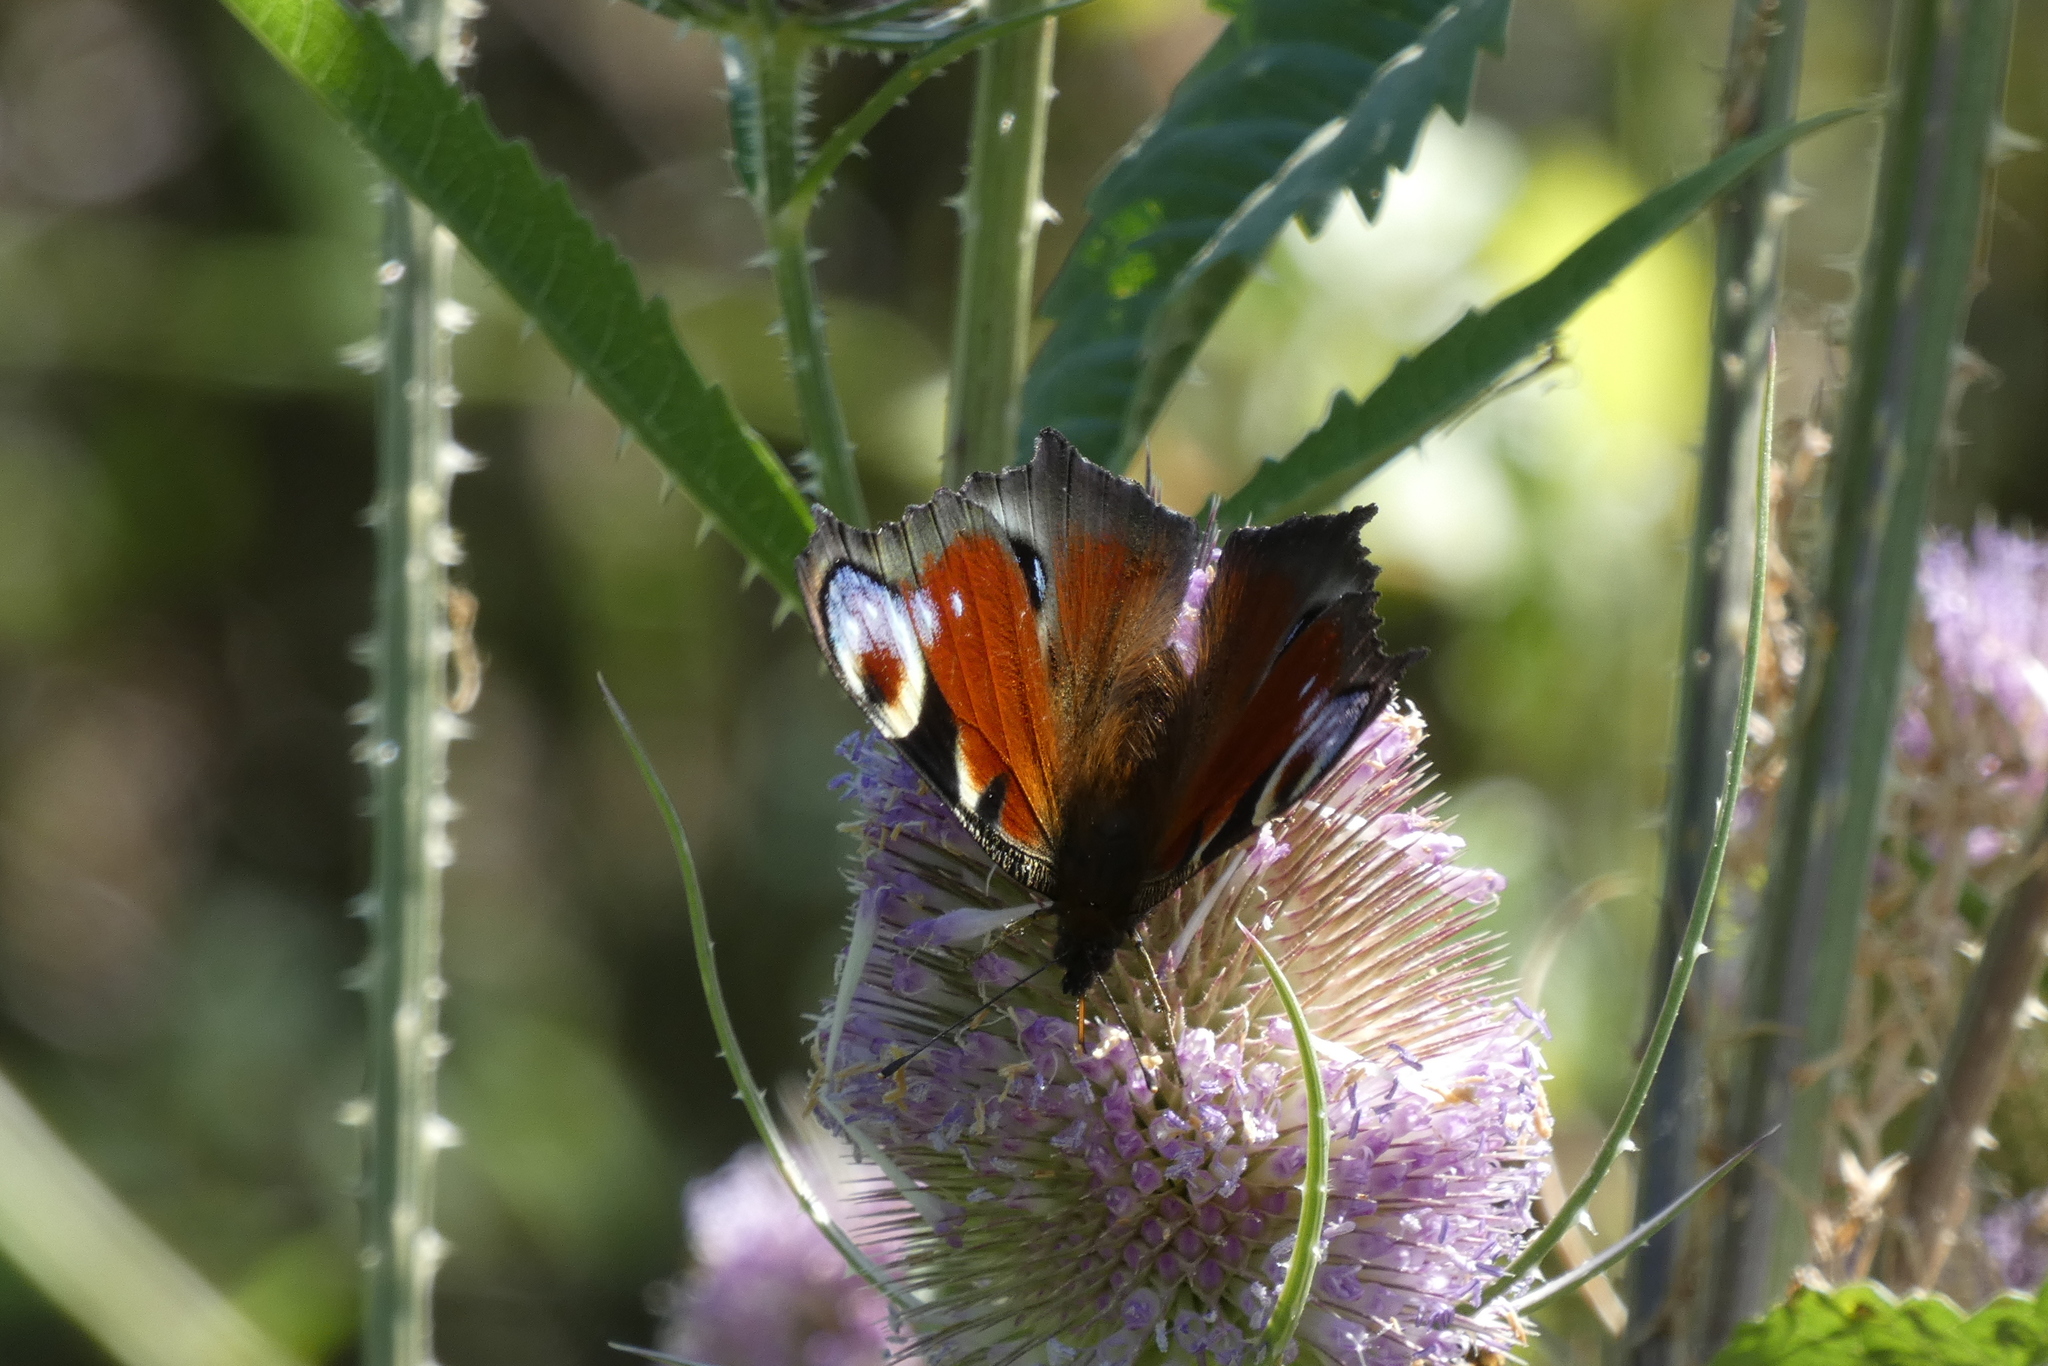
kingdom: Animalia
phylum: Arthropoda
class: Insecta
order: Lepidoptera
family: Nymphalidae
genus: Aglais
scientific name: Aglais io
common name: Peacock
